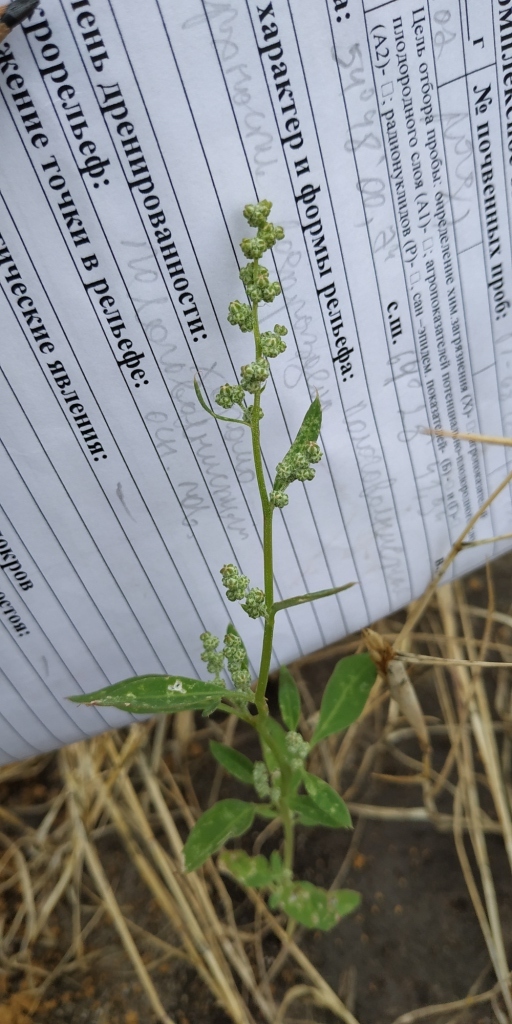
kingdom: Plantae
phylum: Tracheophyta
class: Magnoliopsida
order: Caryophyllales
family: Amaranthaceae
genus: Chenopodium
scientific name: Chenopodium album
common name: Fat-hen
